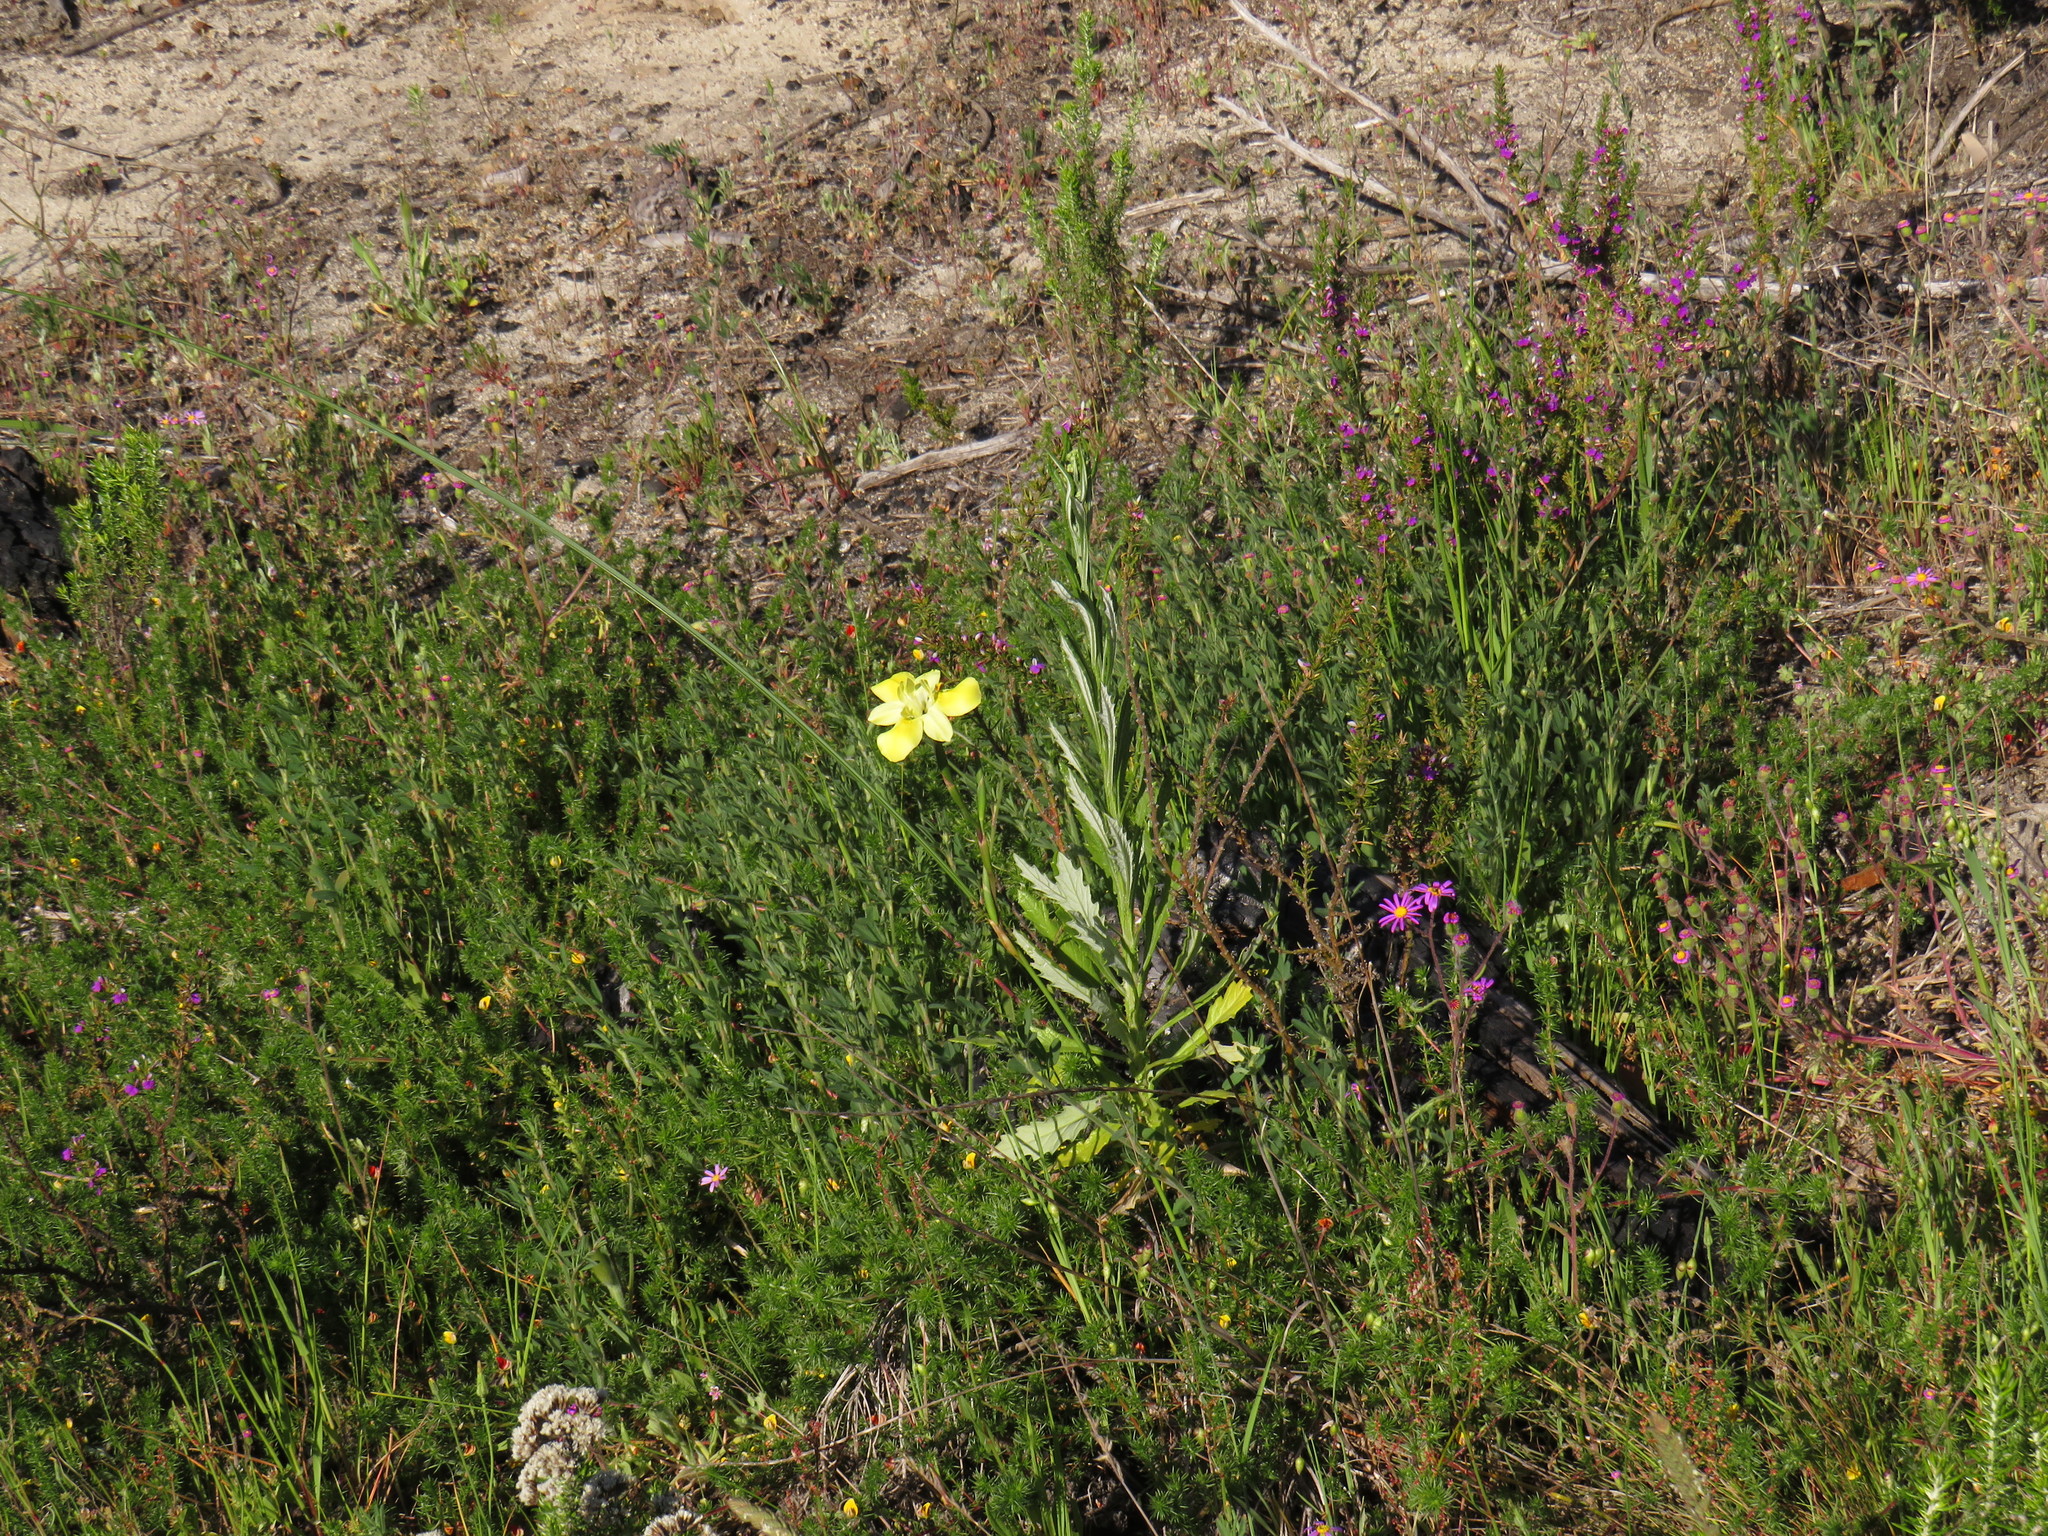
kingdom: Plantae
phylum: Tracheophyta
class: Liliopsida
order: Asparagales
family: Iridaceae
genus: Moraea
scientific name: Moraea fugax
